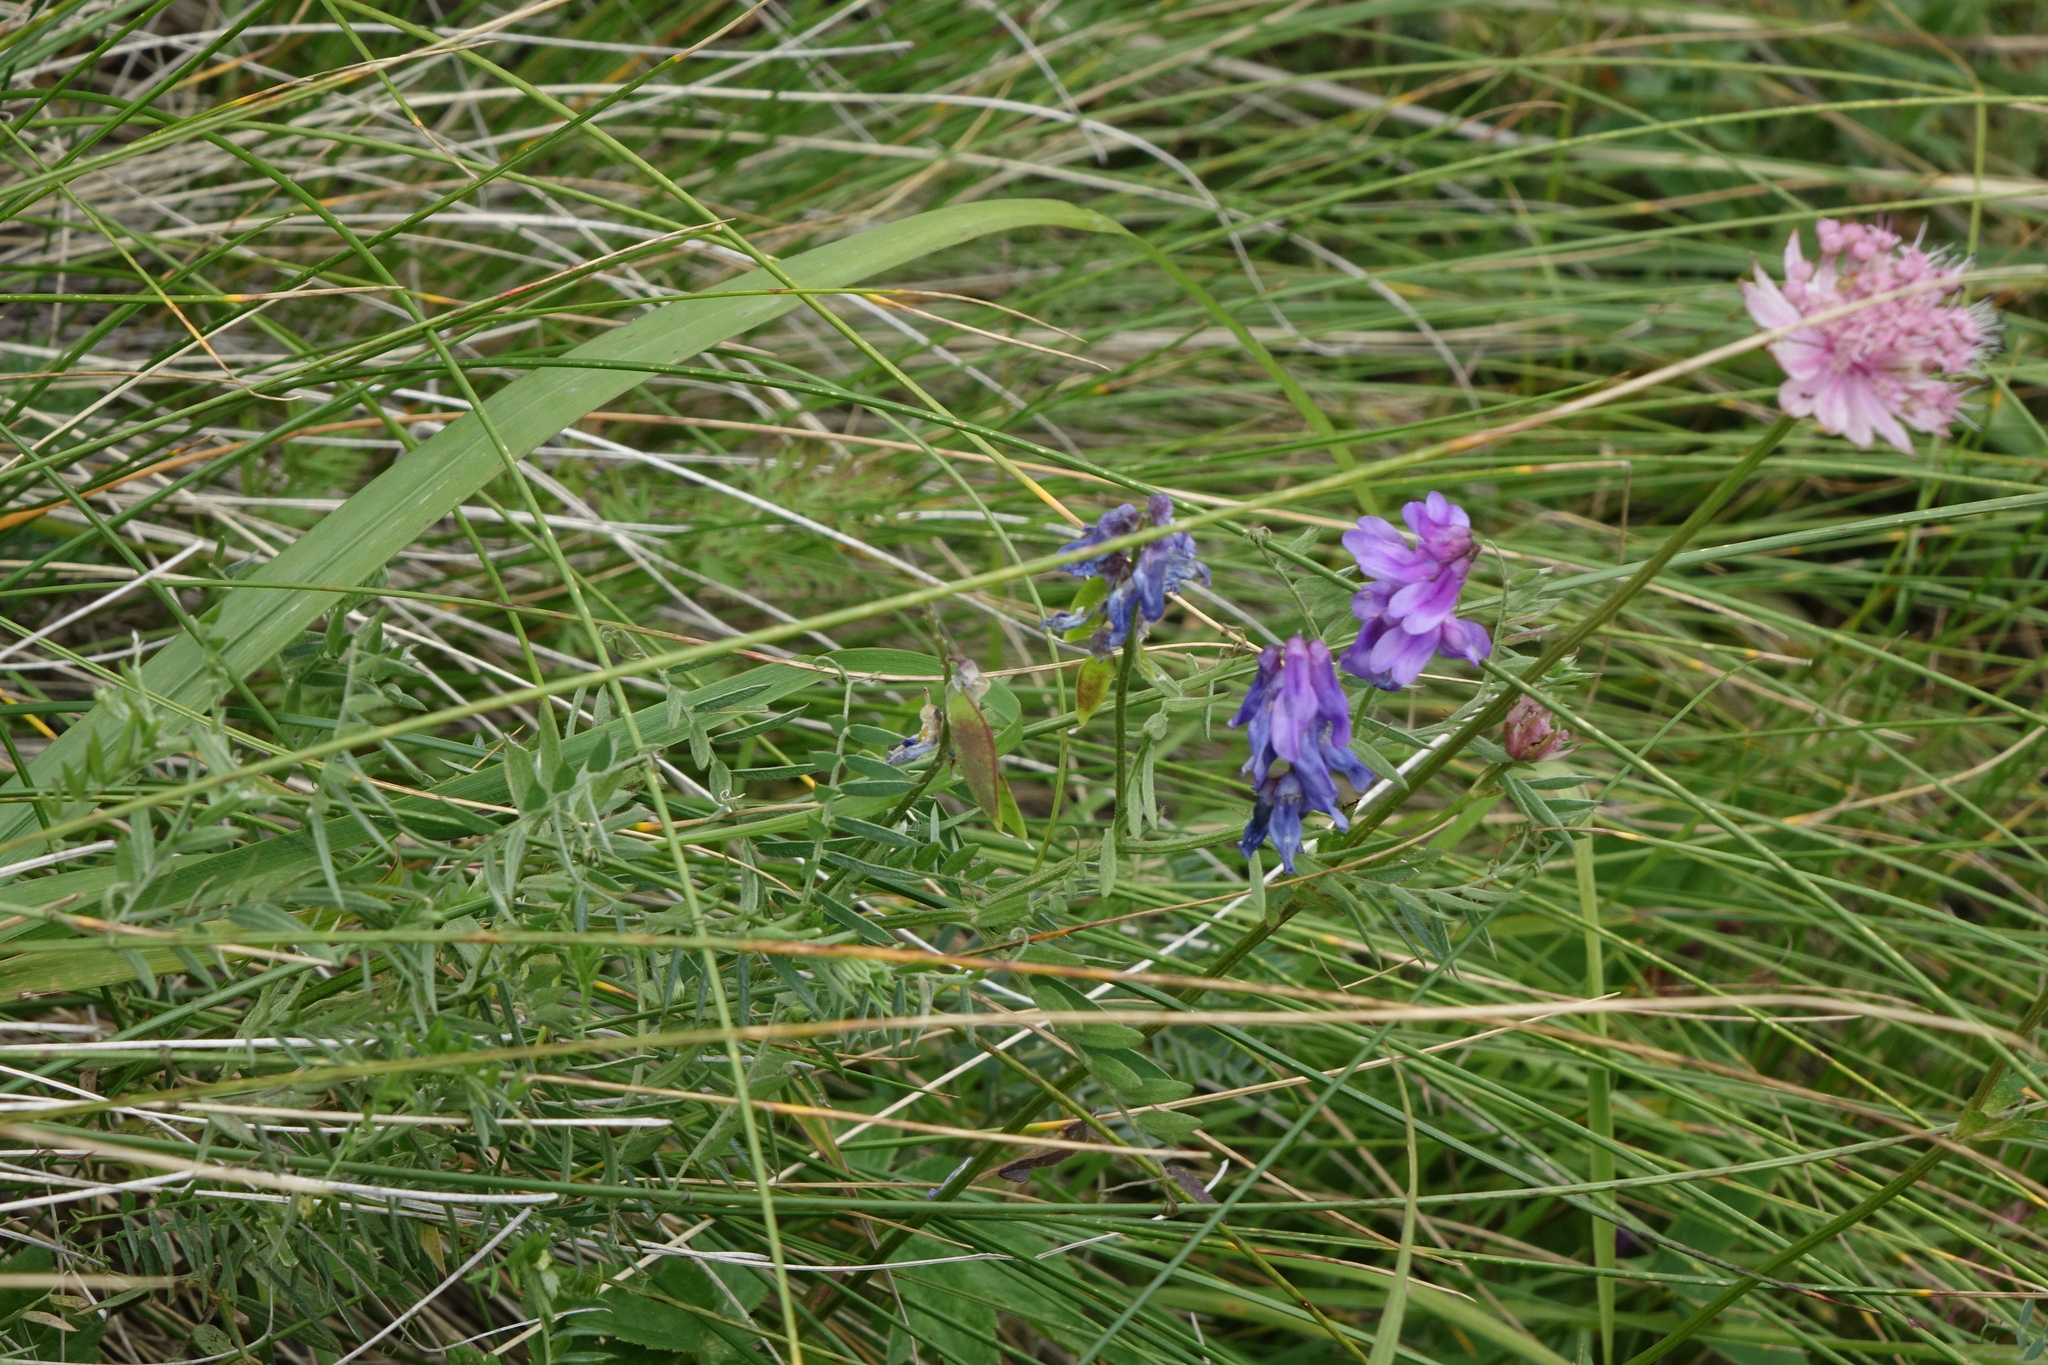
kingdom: Plantae
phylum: Tracheophyta
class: Magnoliopsida
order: Fabales
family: Fabaceae
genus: Vicia
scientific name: Vicia cracca
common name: Bird vetch
